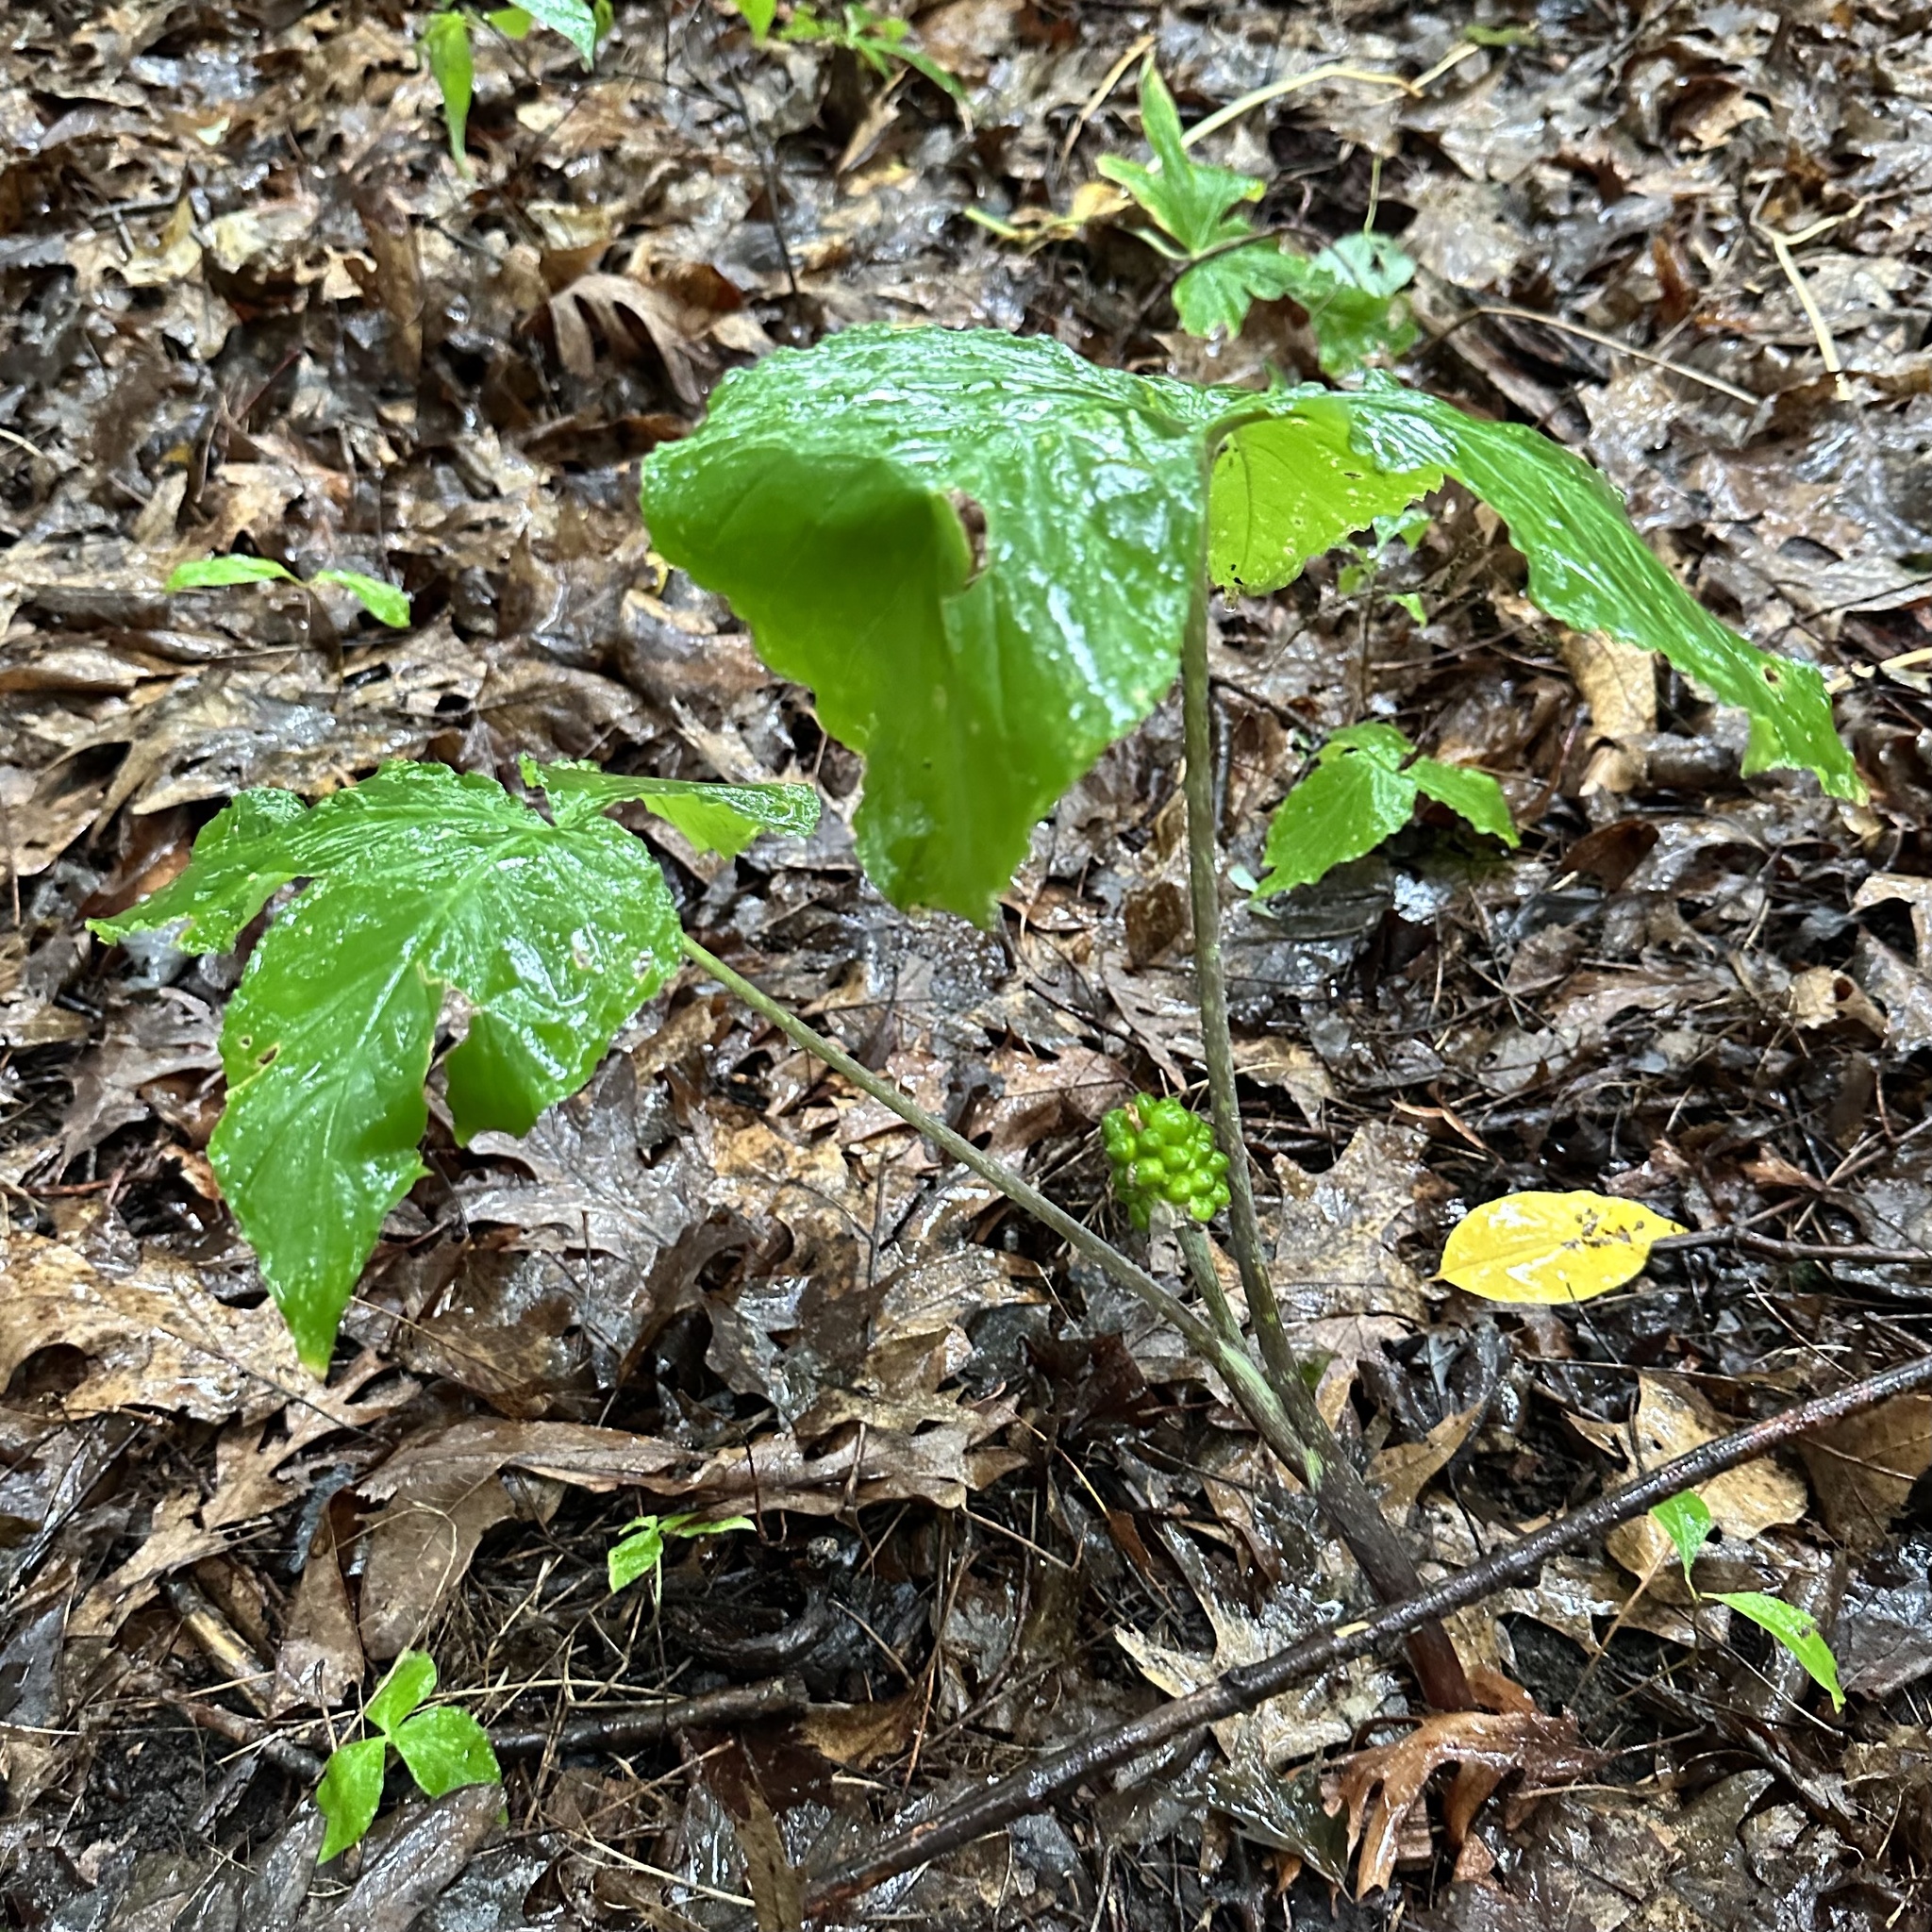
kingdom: Plantae
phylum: Tracheophyta
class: Liliopsida
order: Alismatales
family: Araceae
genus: Arisaema
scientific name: Arisaema triphyllum
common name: Jack-in-the-pulpit
